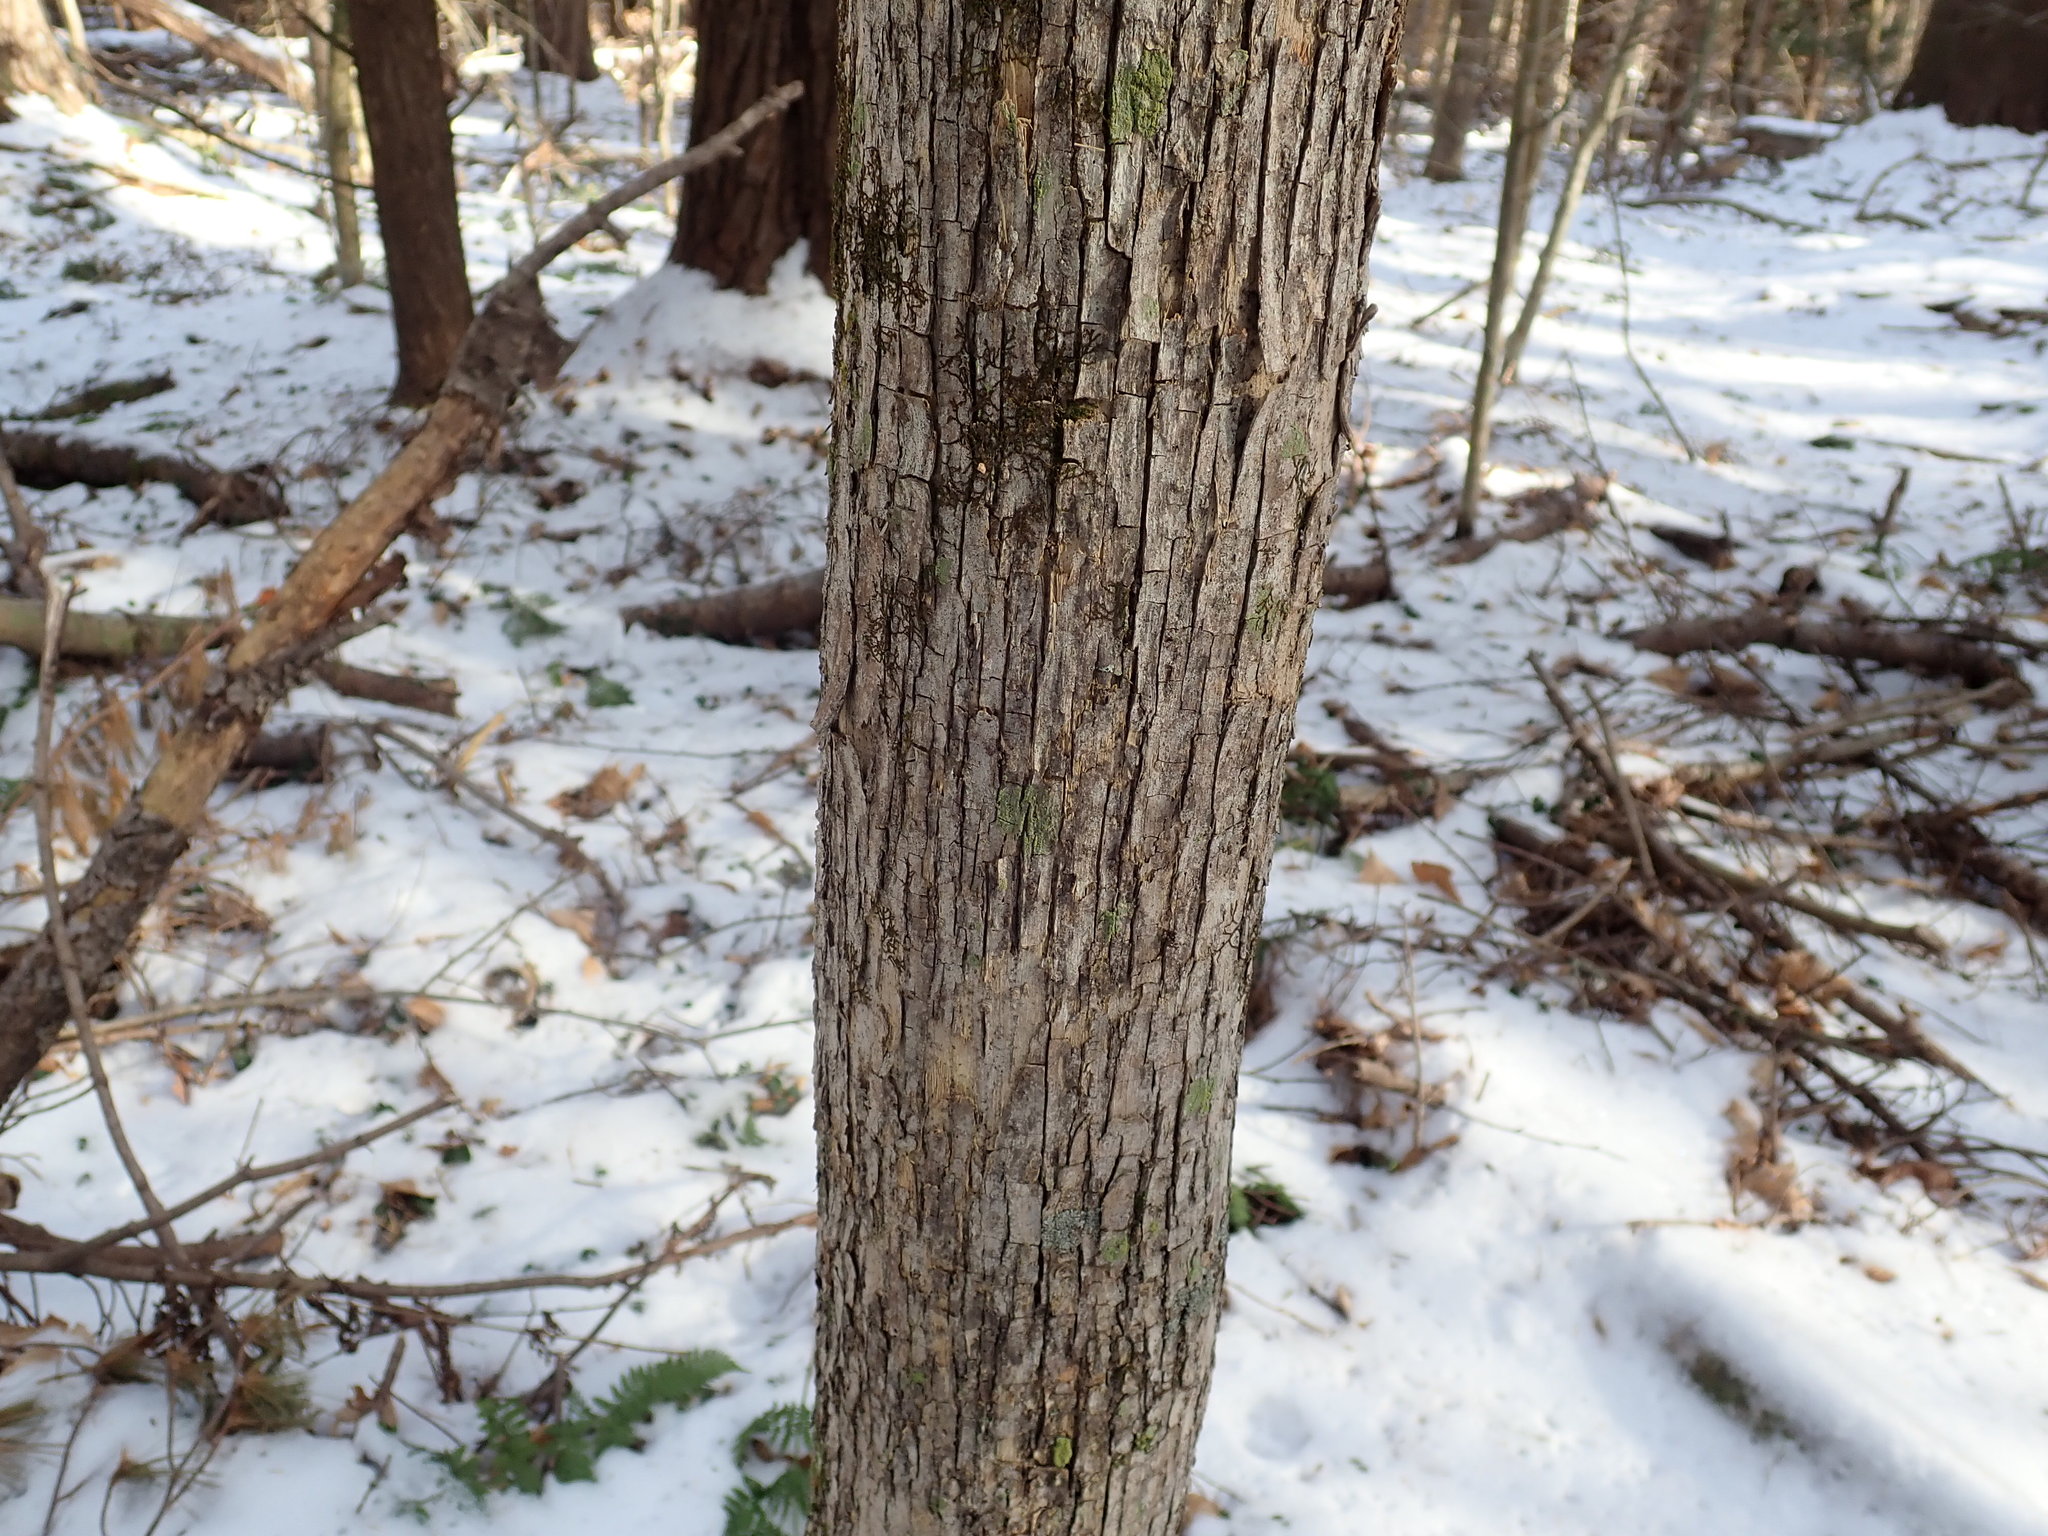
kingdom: Plantae
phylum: Tracheophyta
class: Magnoliopsida
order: Fagales
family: Betulaceae
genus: Ostrya
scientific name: Ostrya virginiana
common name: Ironwood
